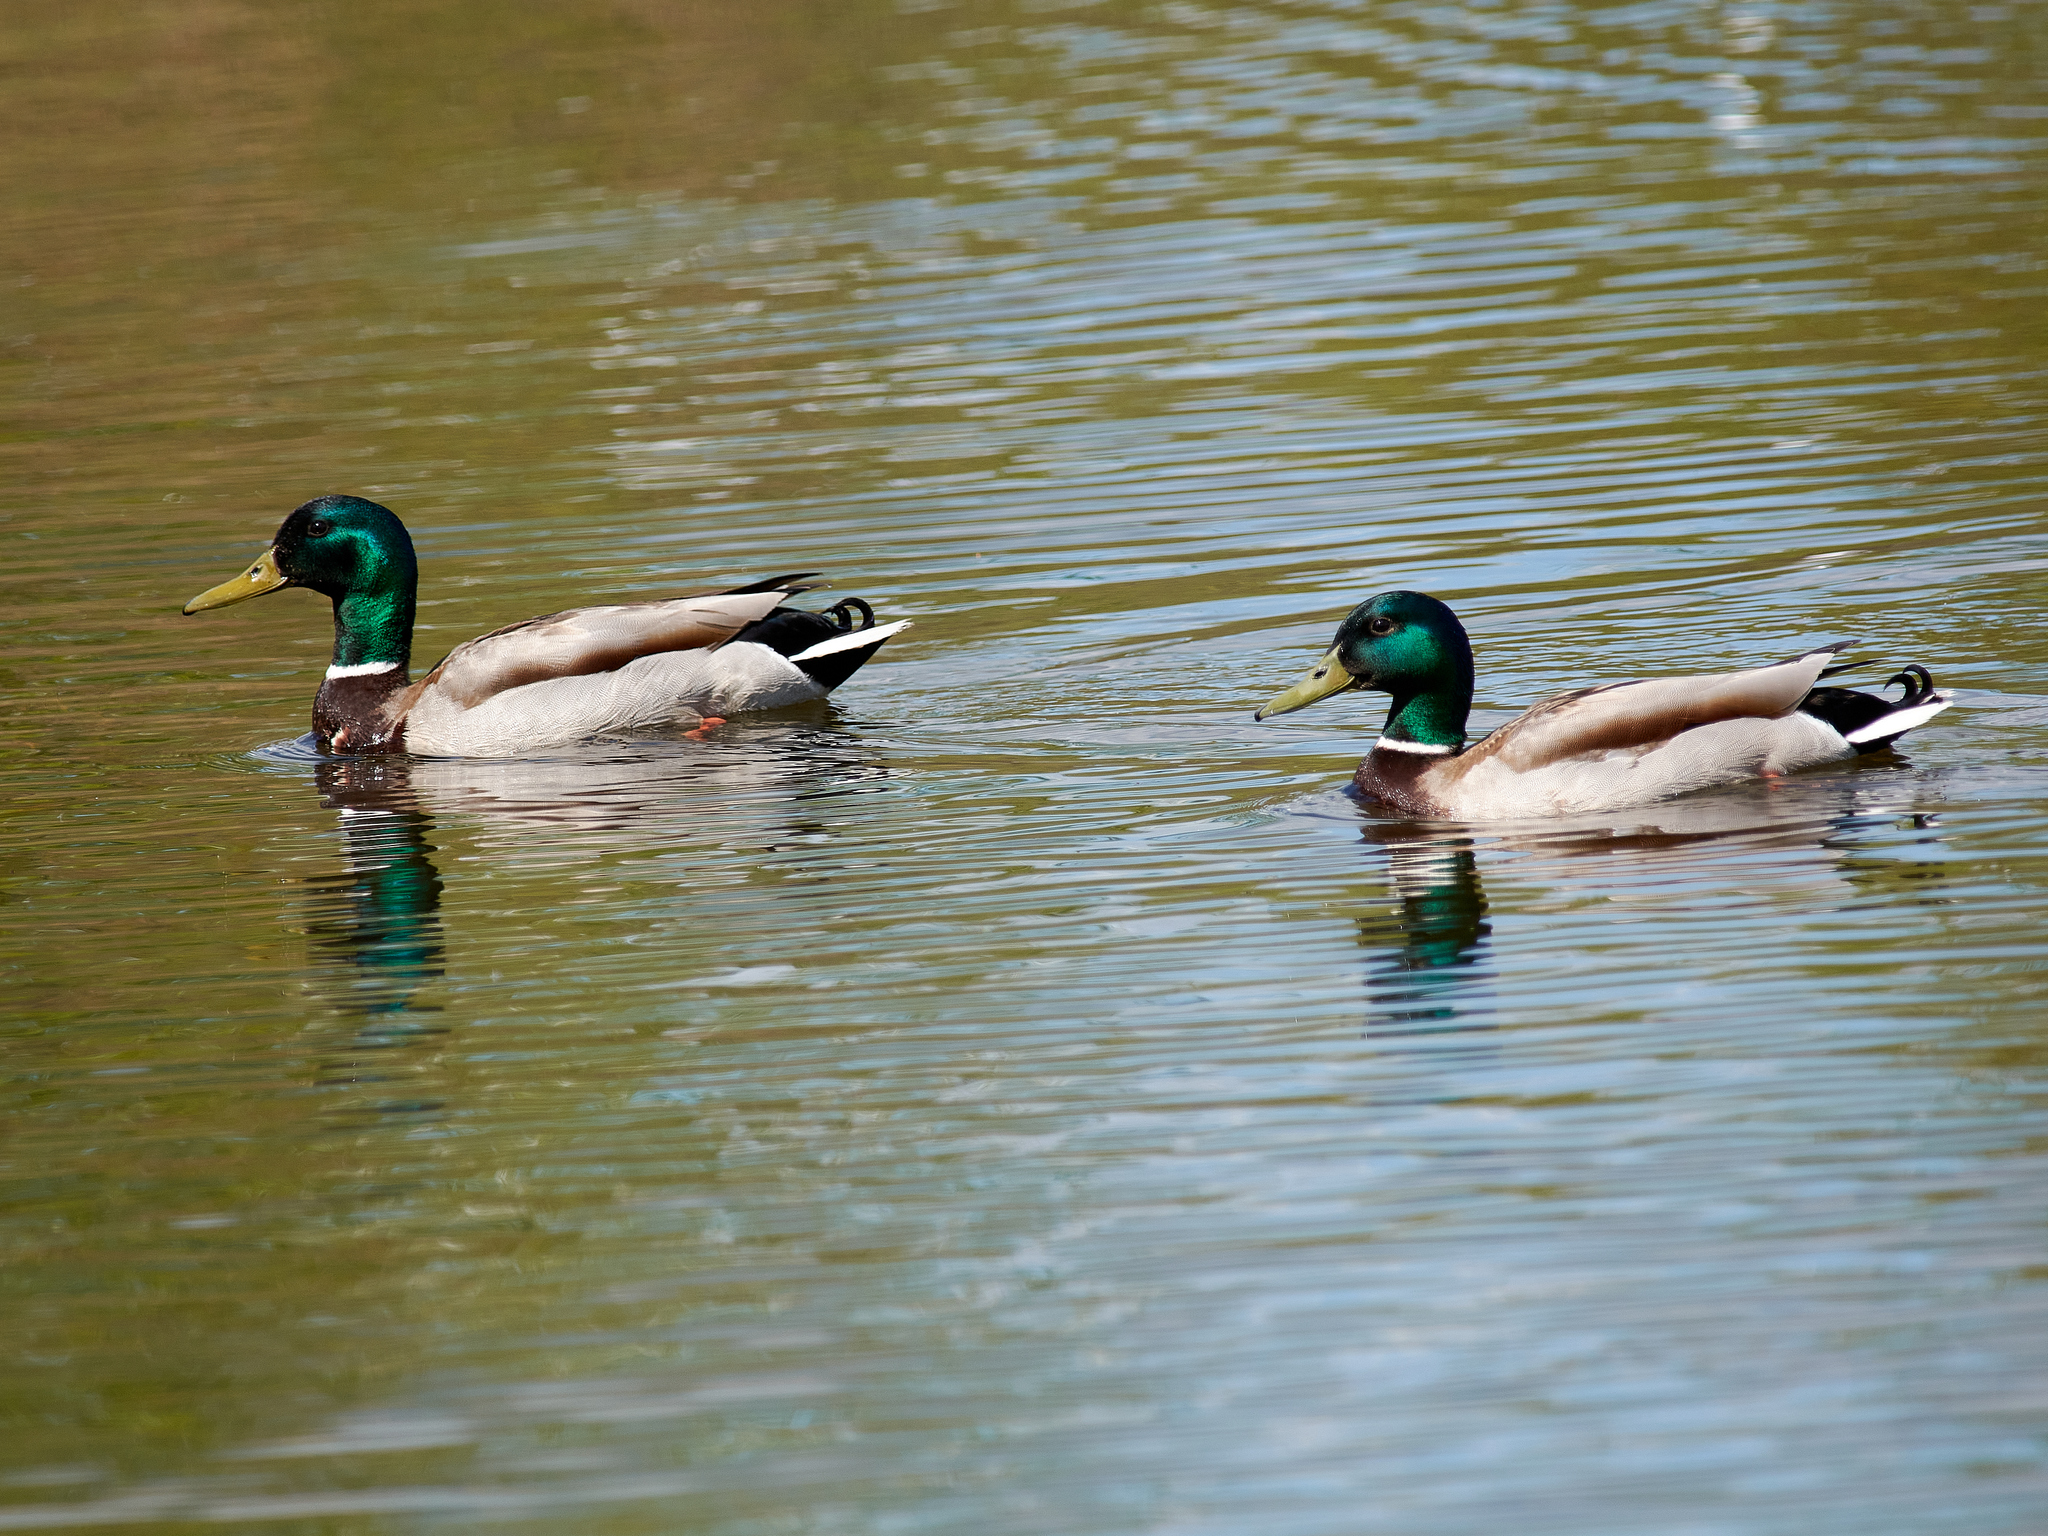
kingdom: Animalia
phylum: Chordata
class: Aves
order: Anseriformes
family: Anatidae
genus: Anas
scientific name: Anas platyrhynchos
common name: Mallard
